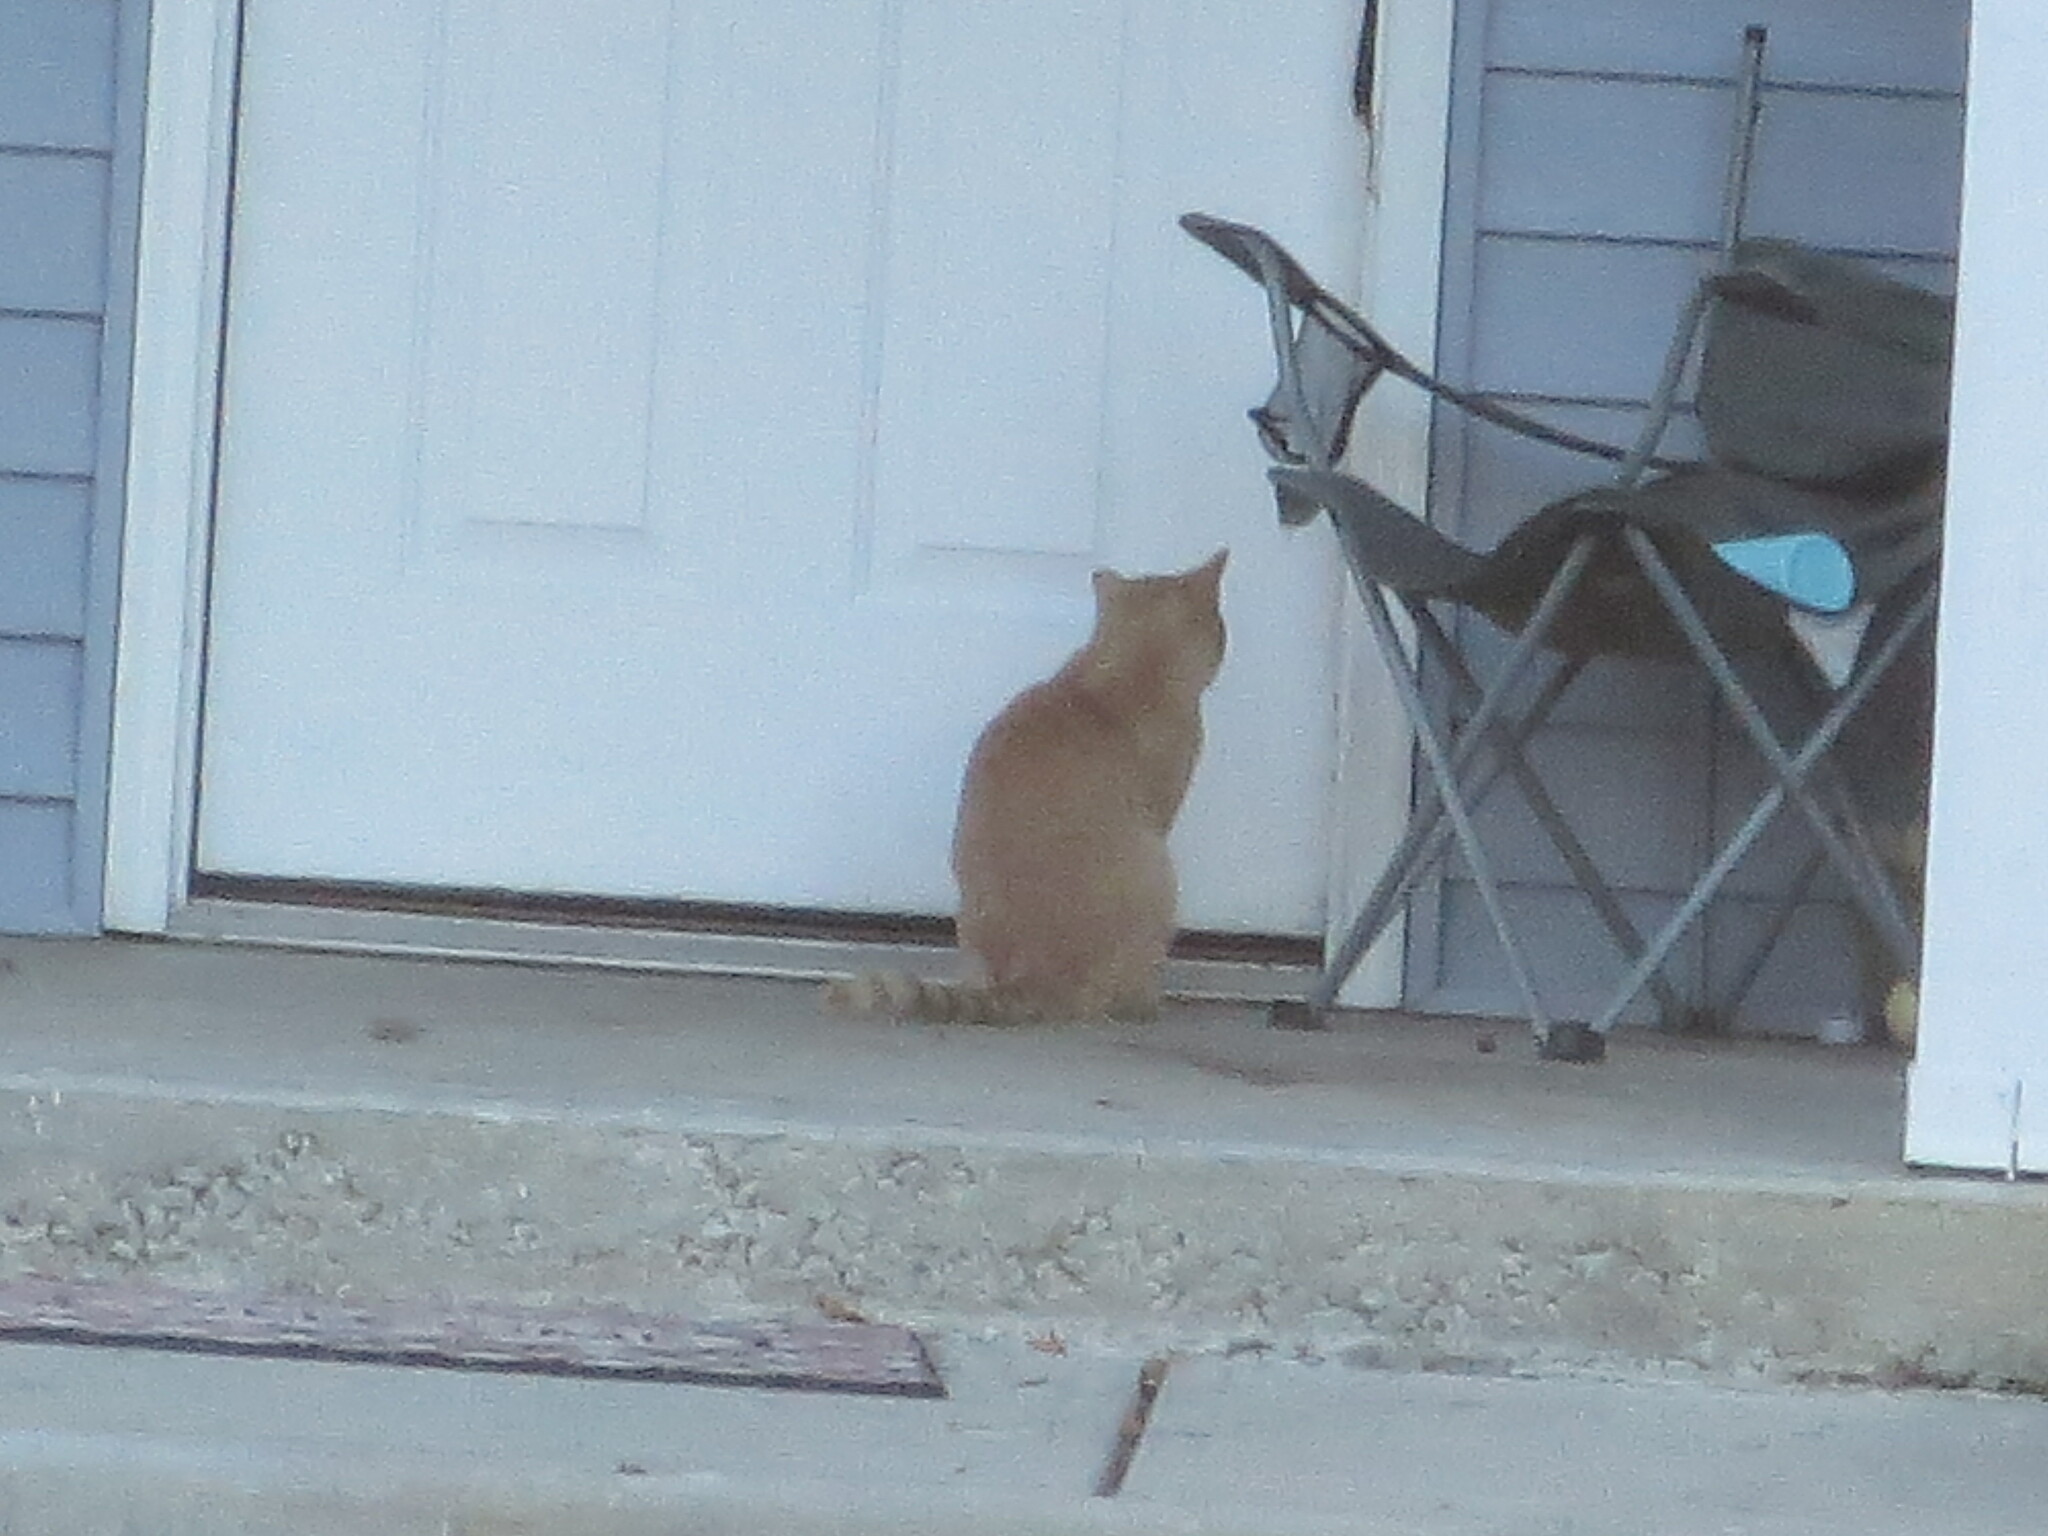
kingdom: Animalia
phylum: Chordata
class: Mammalia
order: Carnivora
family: Felidae
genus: Felis
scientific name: Felis catus
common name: Domestic cat
